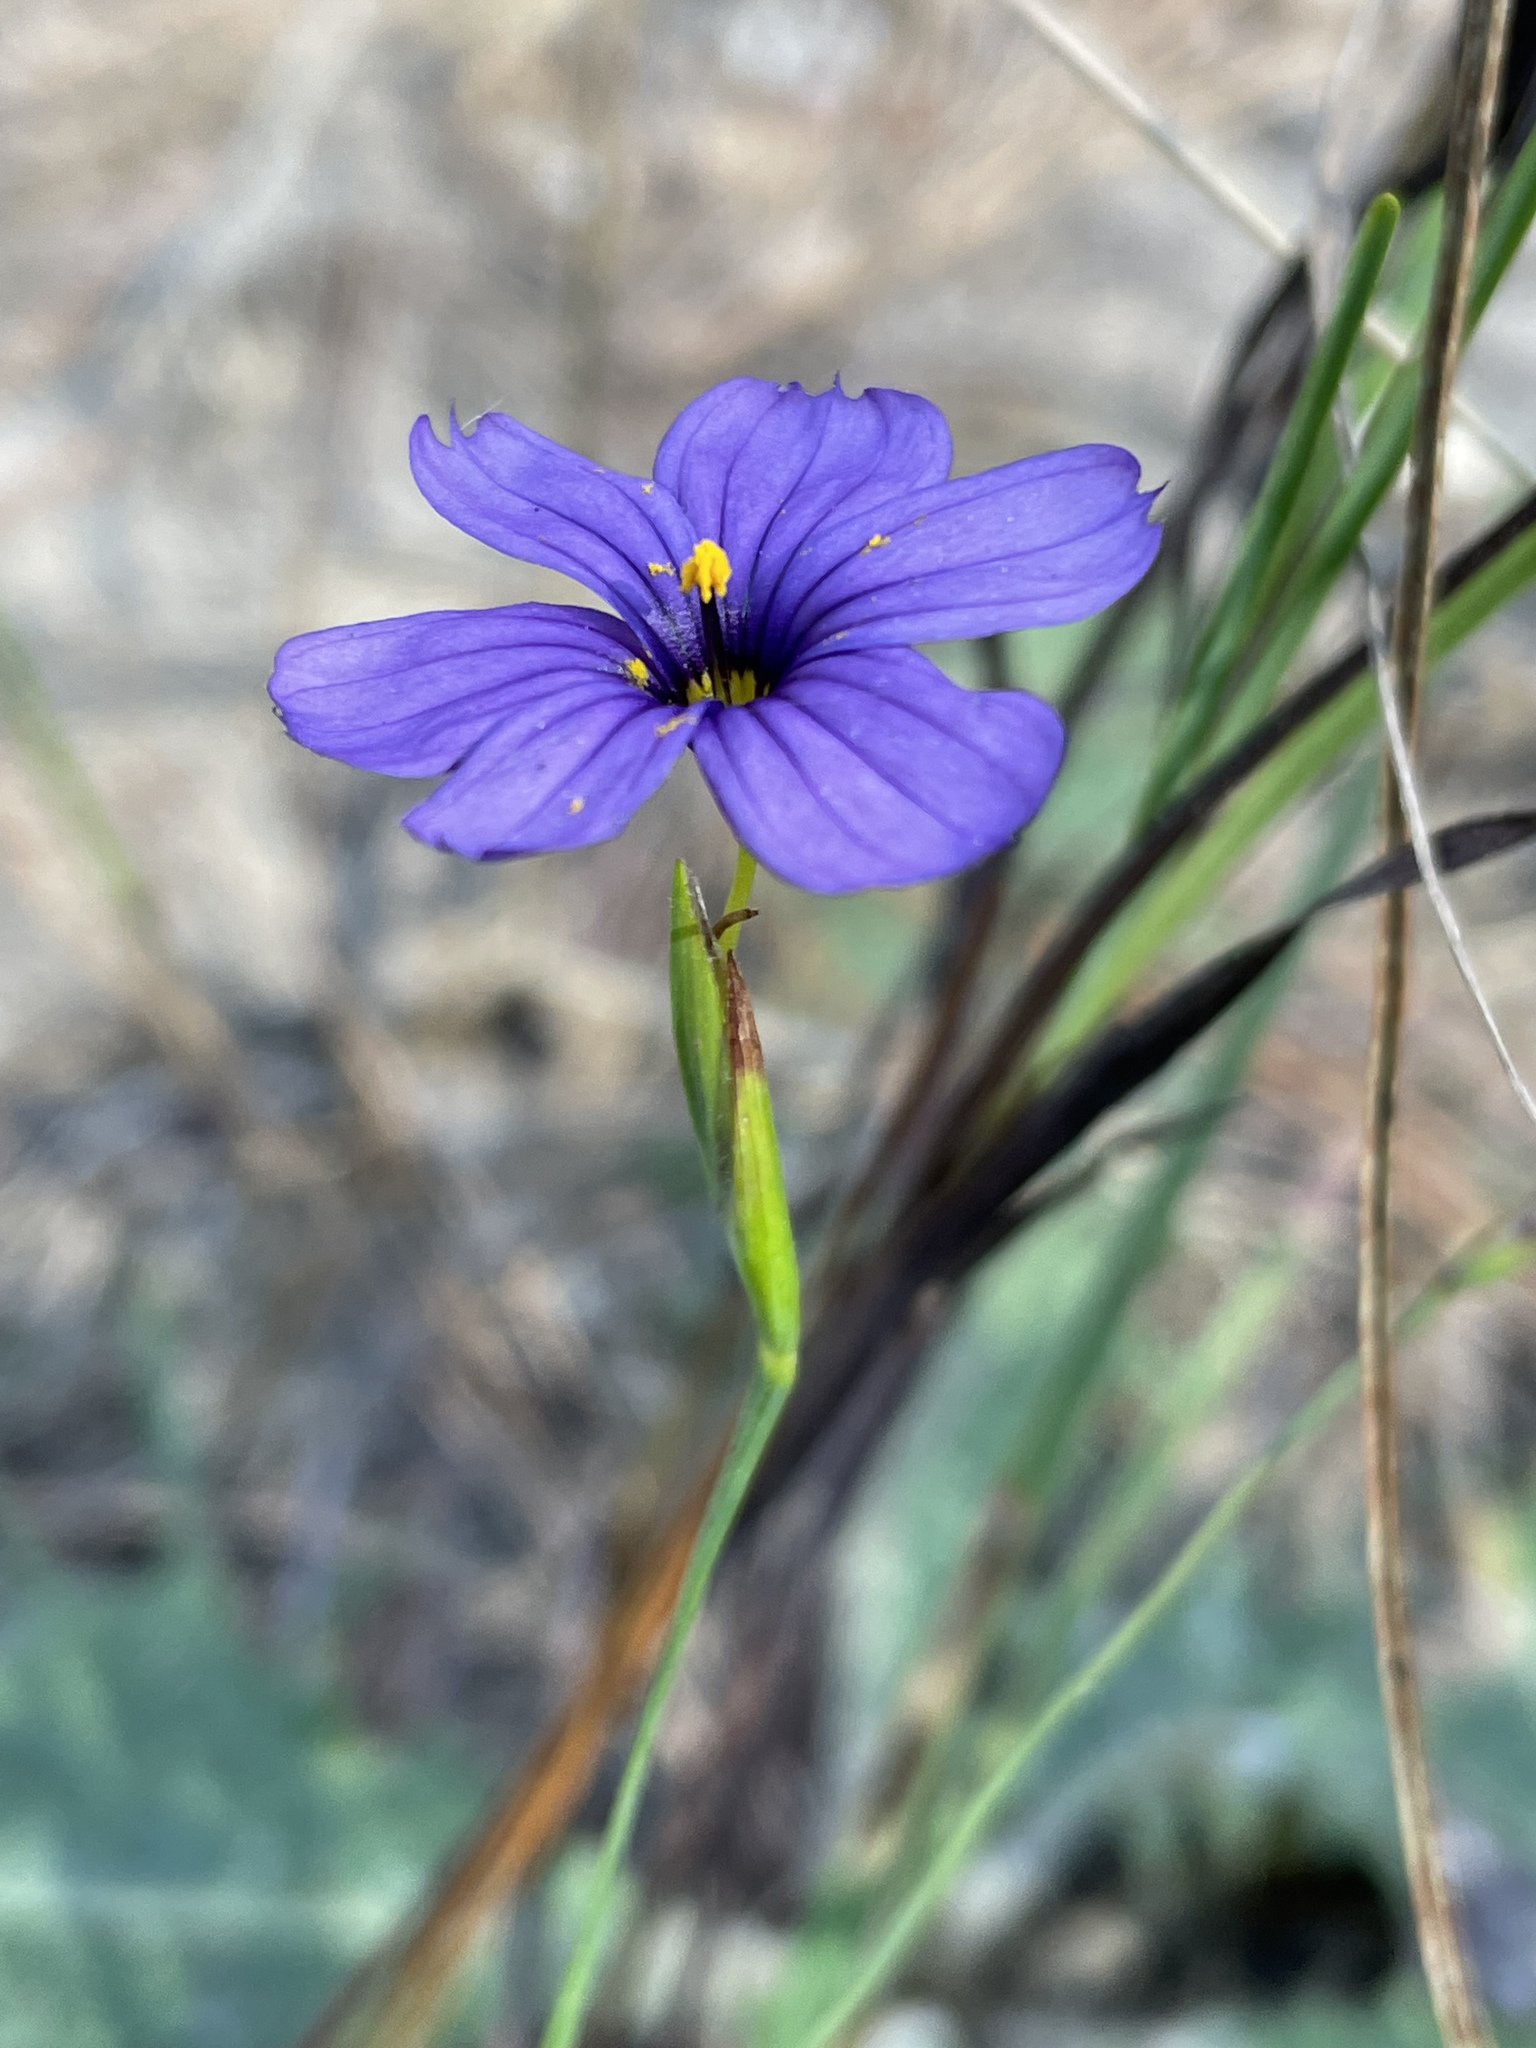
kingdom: Plantae
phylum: Tracheophyta
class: Liliopsida
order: Asparagales
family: Iridaceae
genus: Sisyrinchium
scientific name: Sisyrinchium bellum
